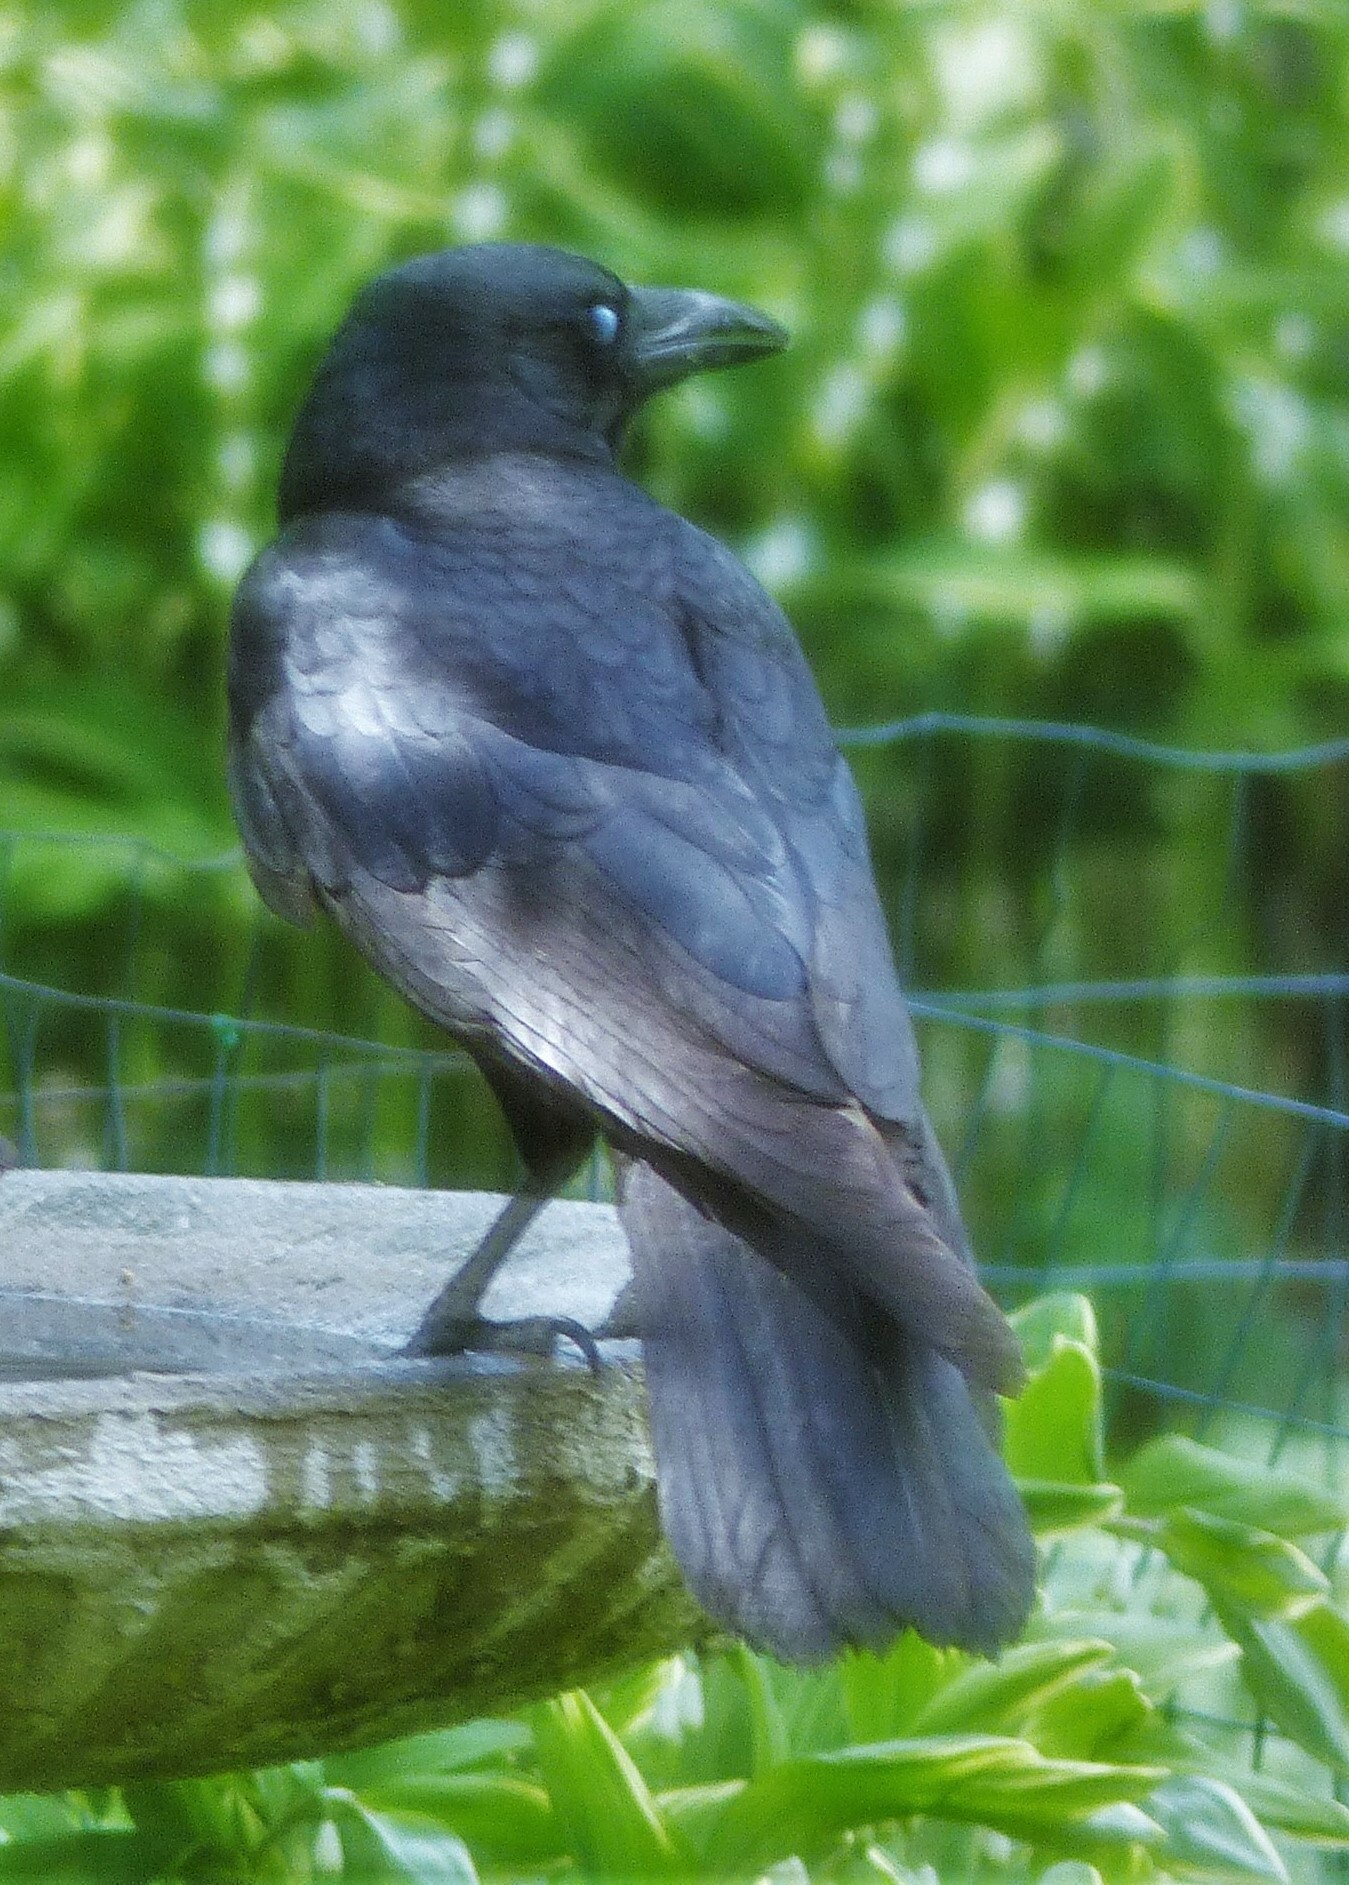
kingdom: Animalia
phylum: Chordata
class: Aves
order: Passeriformes
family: Corvidae
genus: Corvus
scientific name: Corvus brachyrhynchos
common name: American crow
